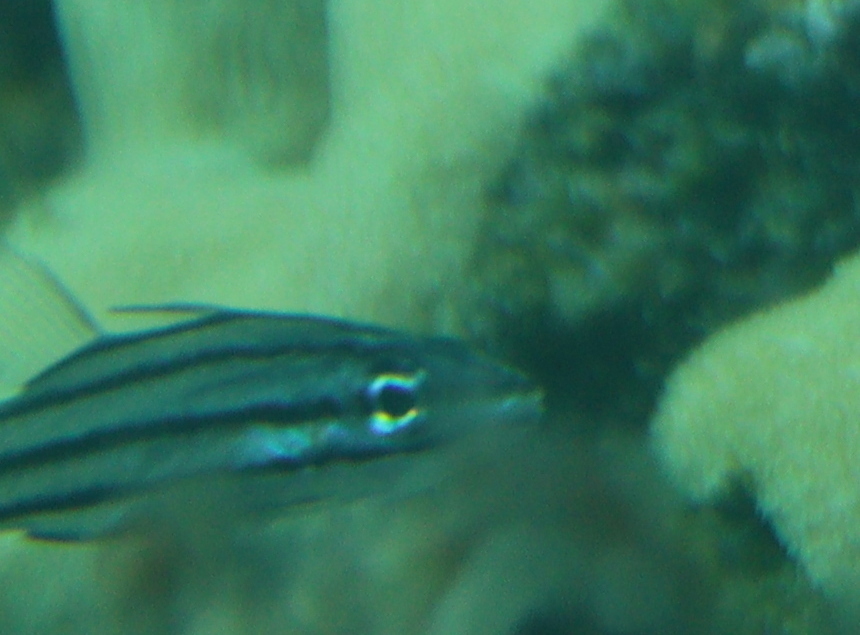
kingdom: Animalia
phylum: Chordata
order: Perciformes
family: Apogonidae
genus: Cheilodipterus
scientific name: Cheilodipterus quinquelineatus
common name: Five-lined cardinalfish
